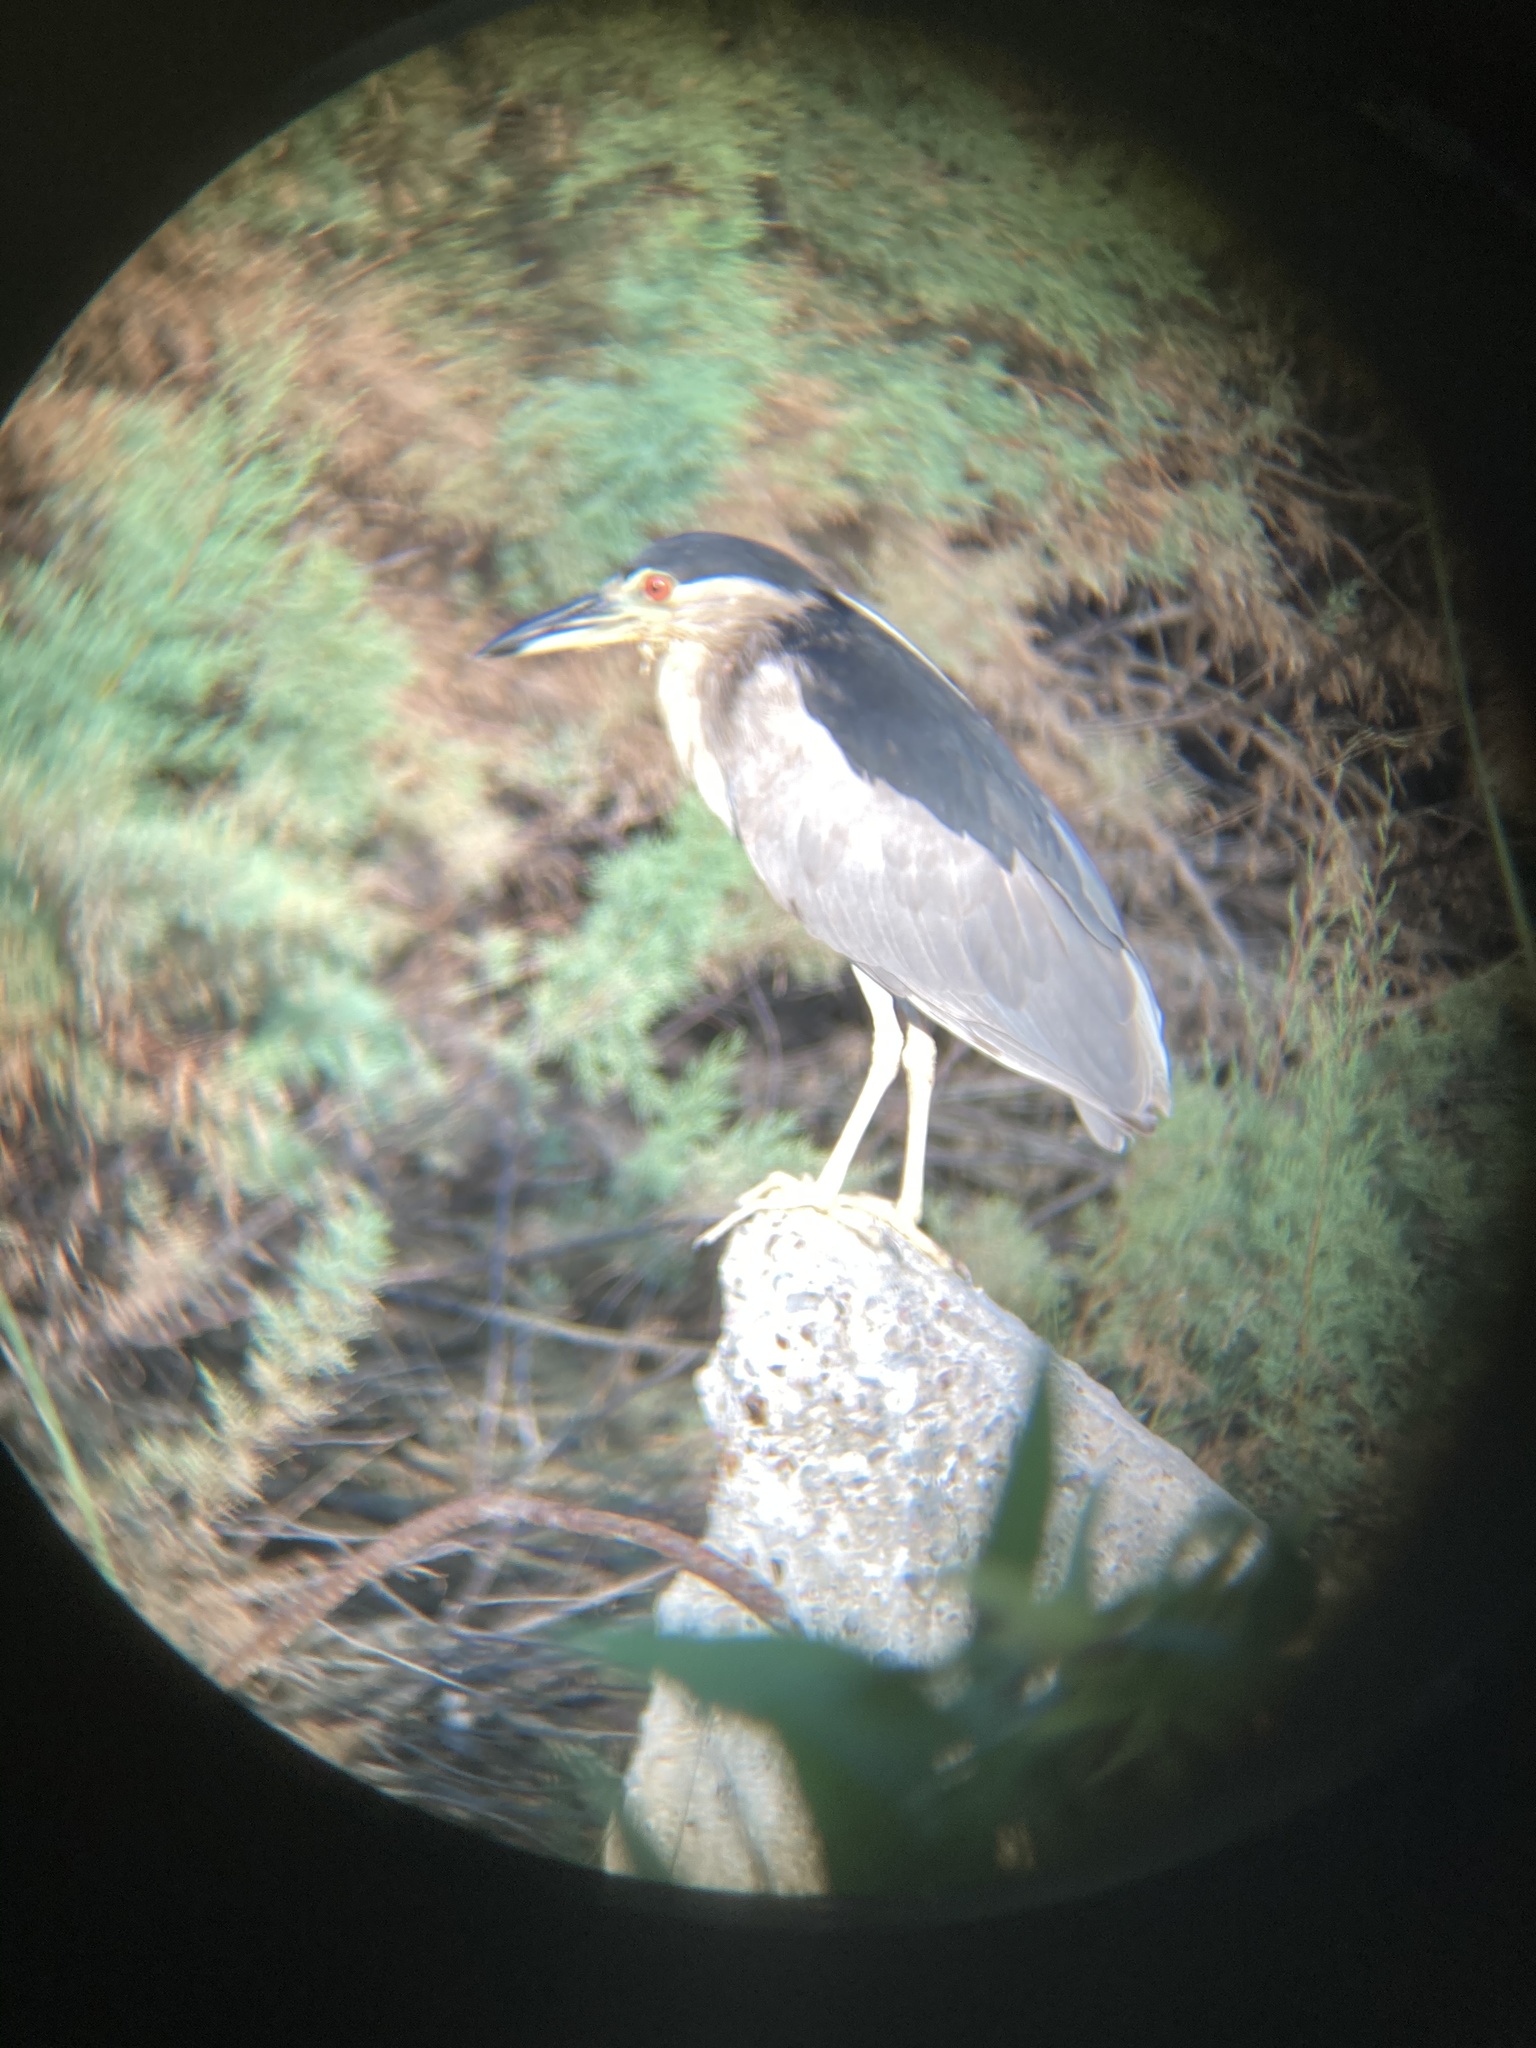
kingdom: Animalia
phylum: Chordata
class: Aves
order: Pelecaniformes
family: Ardeidae
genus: Nycticorax
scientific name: Nycticorax nycticorax
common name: Black-crowned night heron
